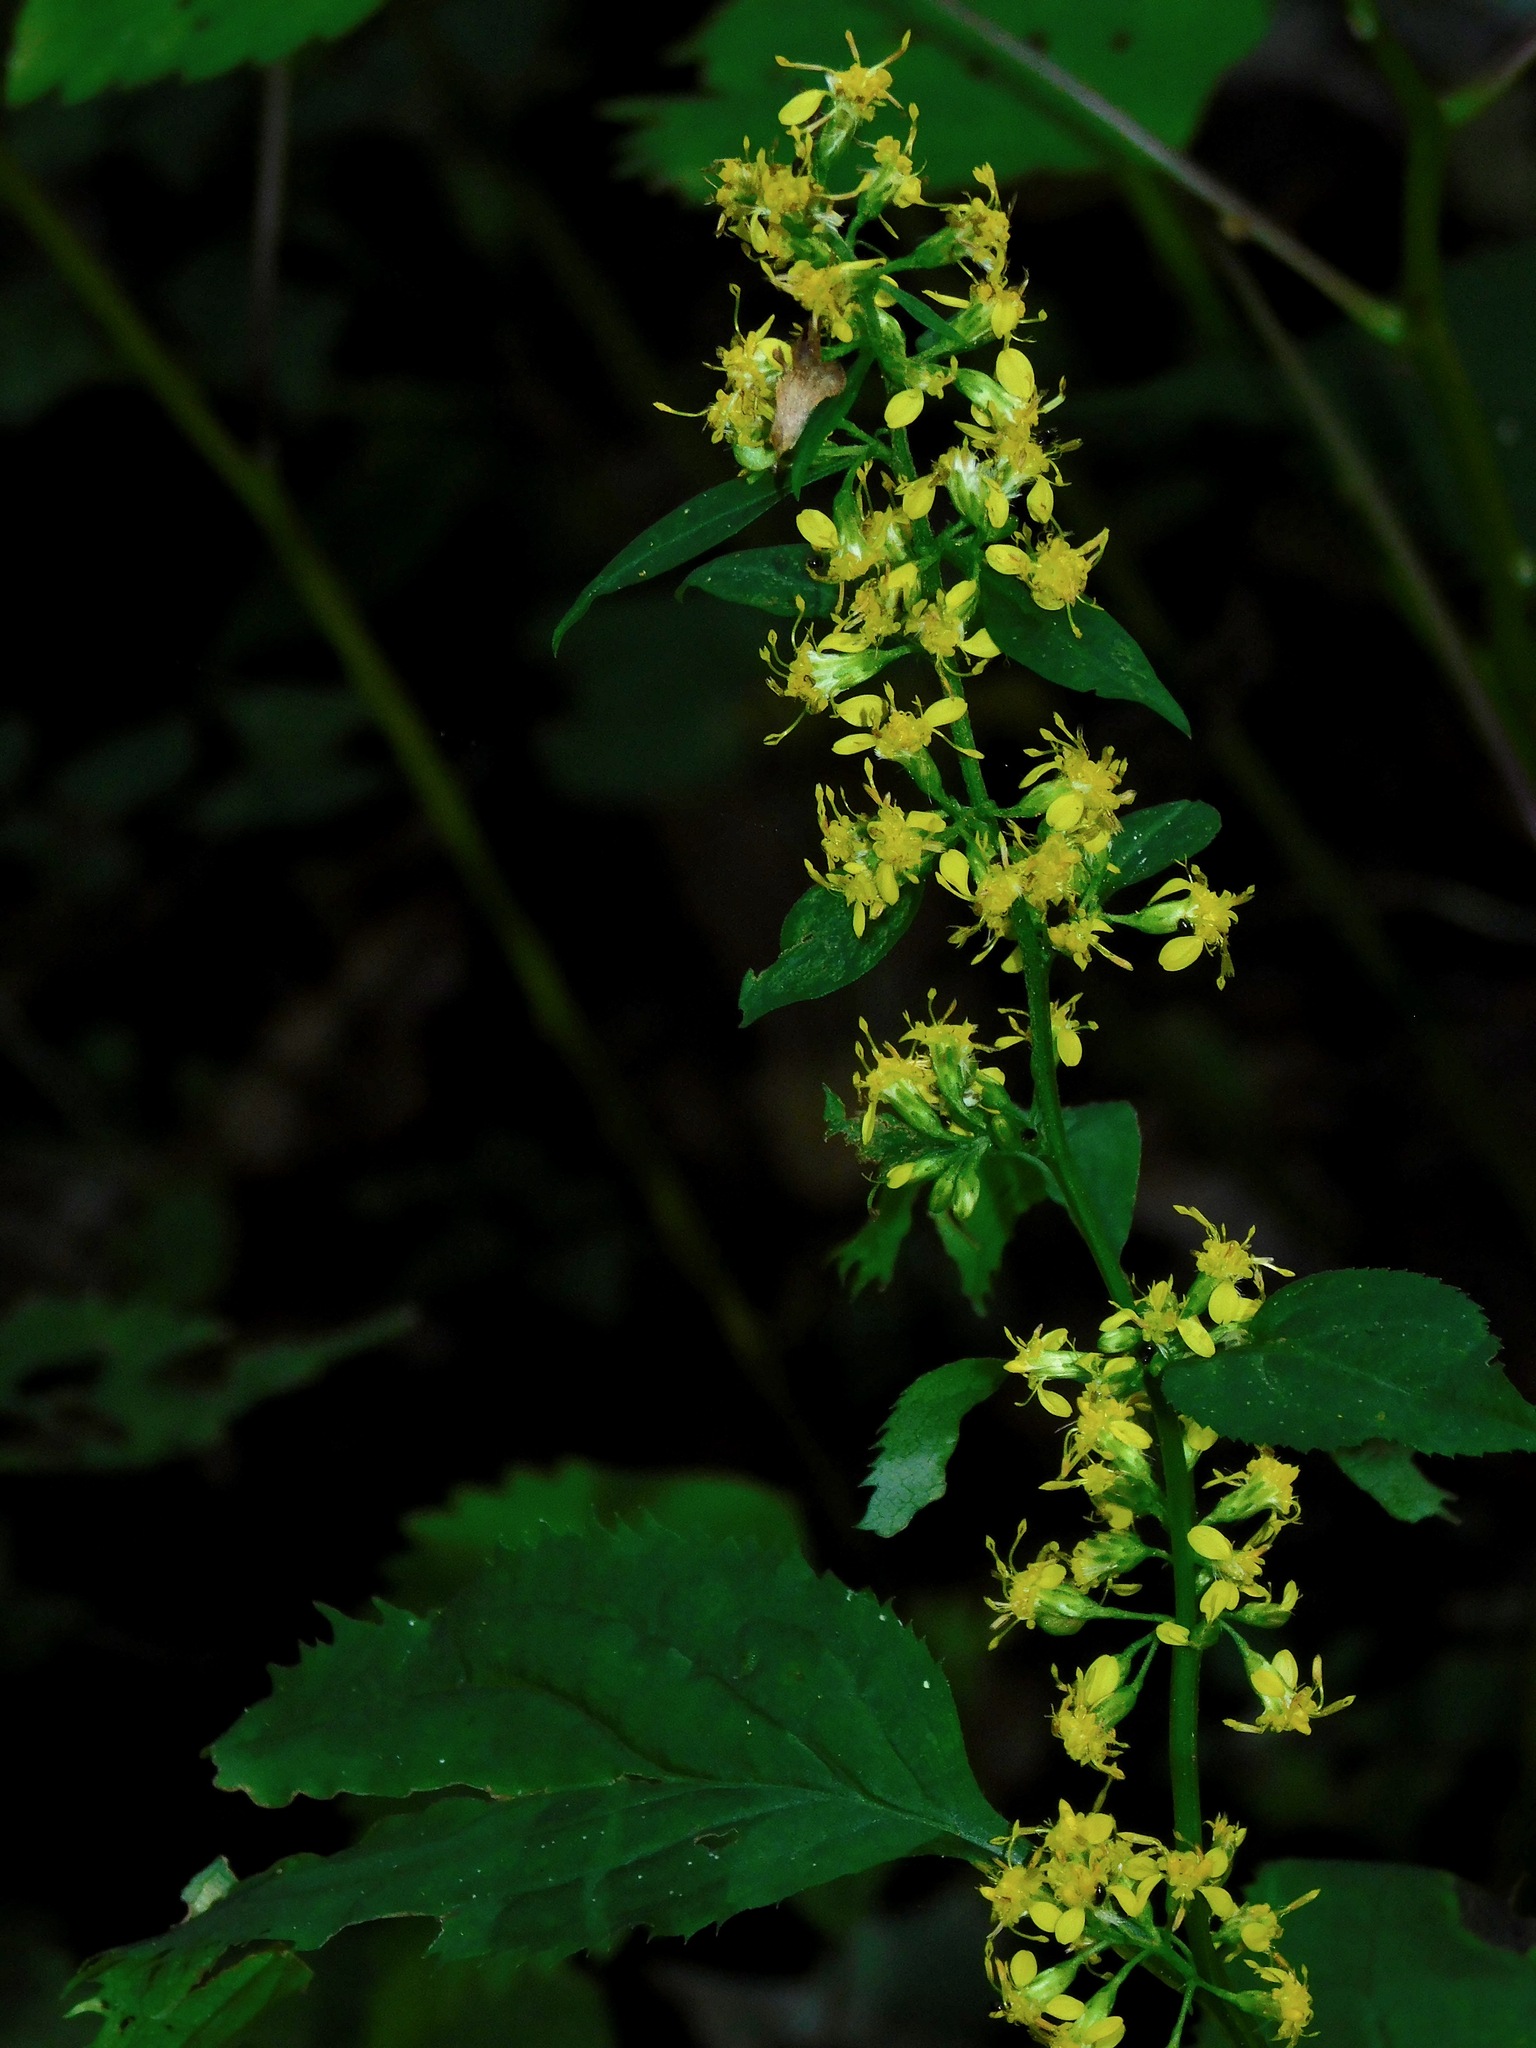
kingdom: Plantae
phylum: Tracheophyta
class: Magnoliopsida
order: Asterales
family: Asteraceae
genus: Solidago
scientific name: Solidago flexicaulis
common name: Zig-zag goldenrod
